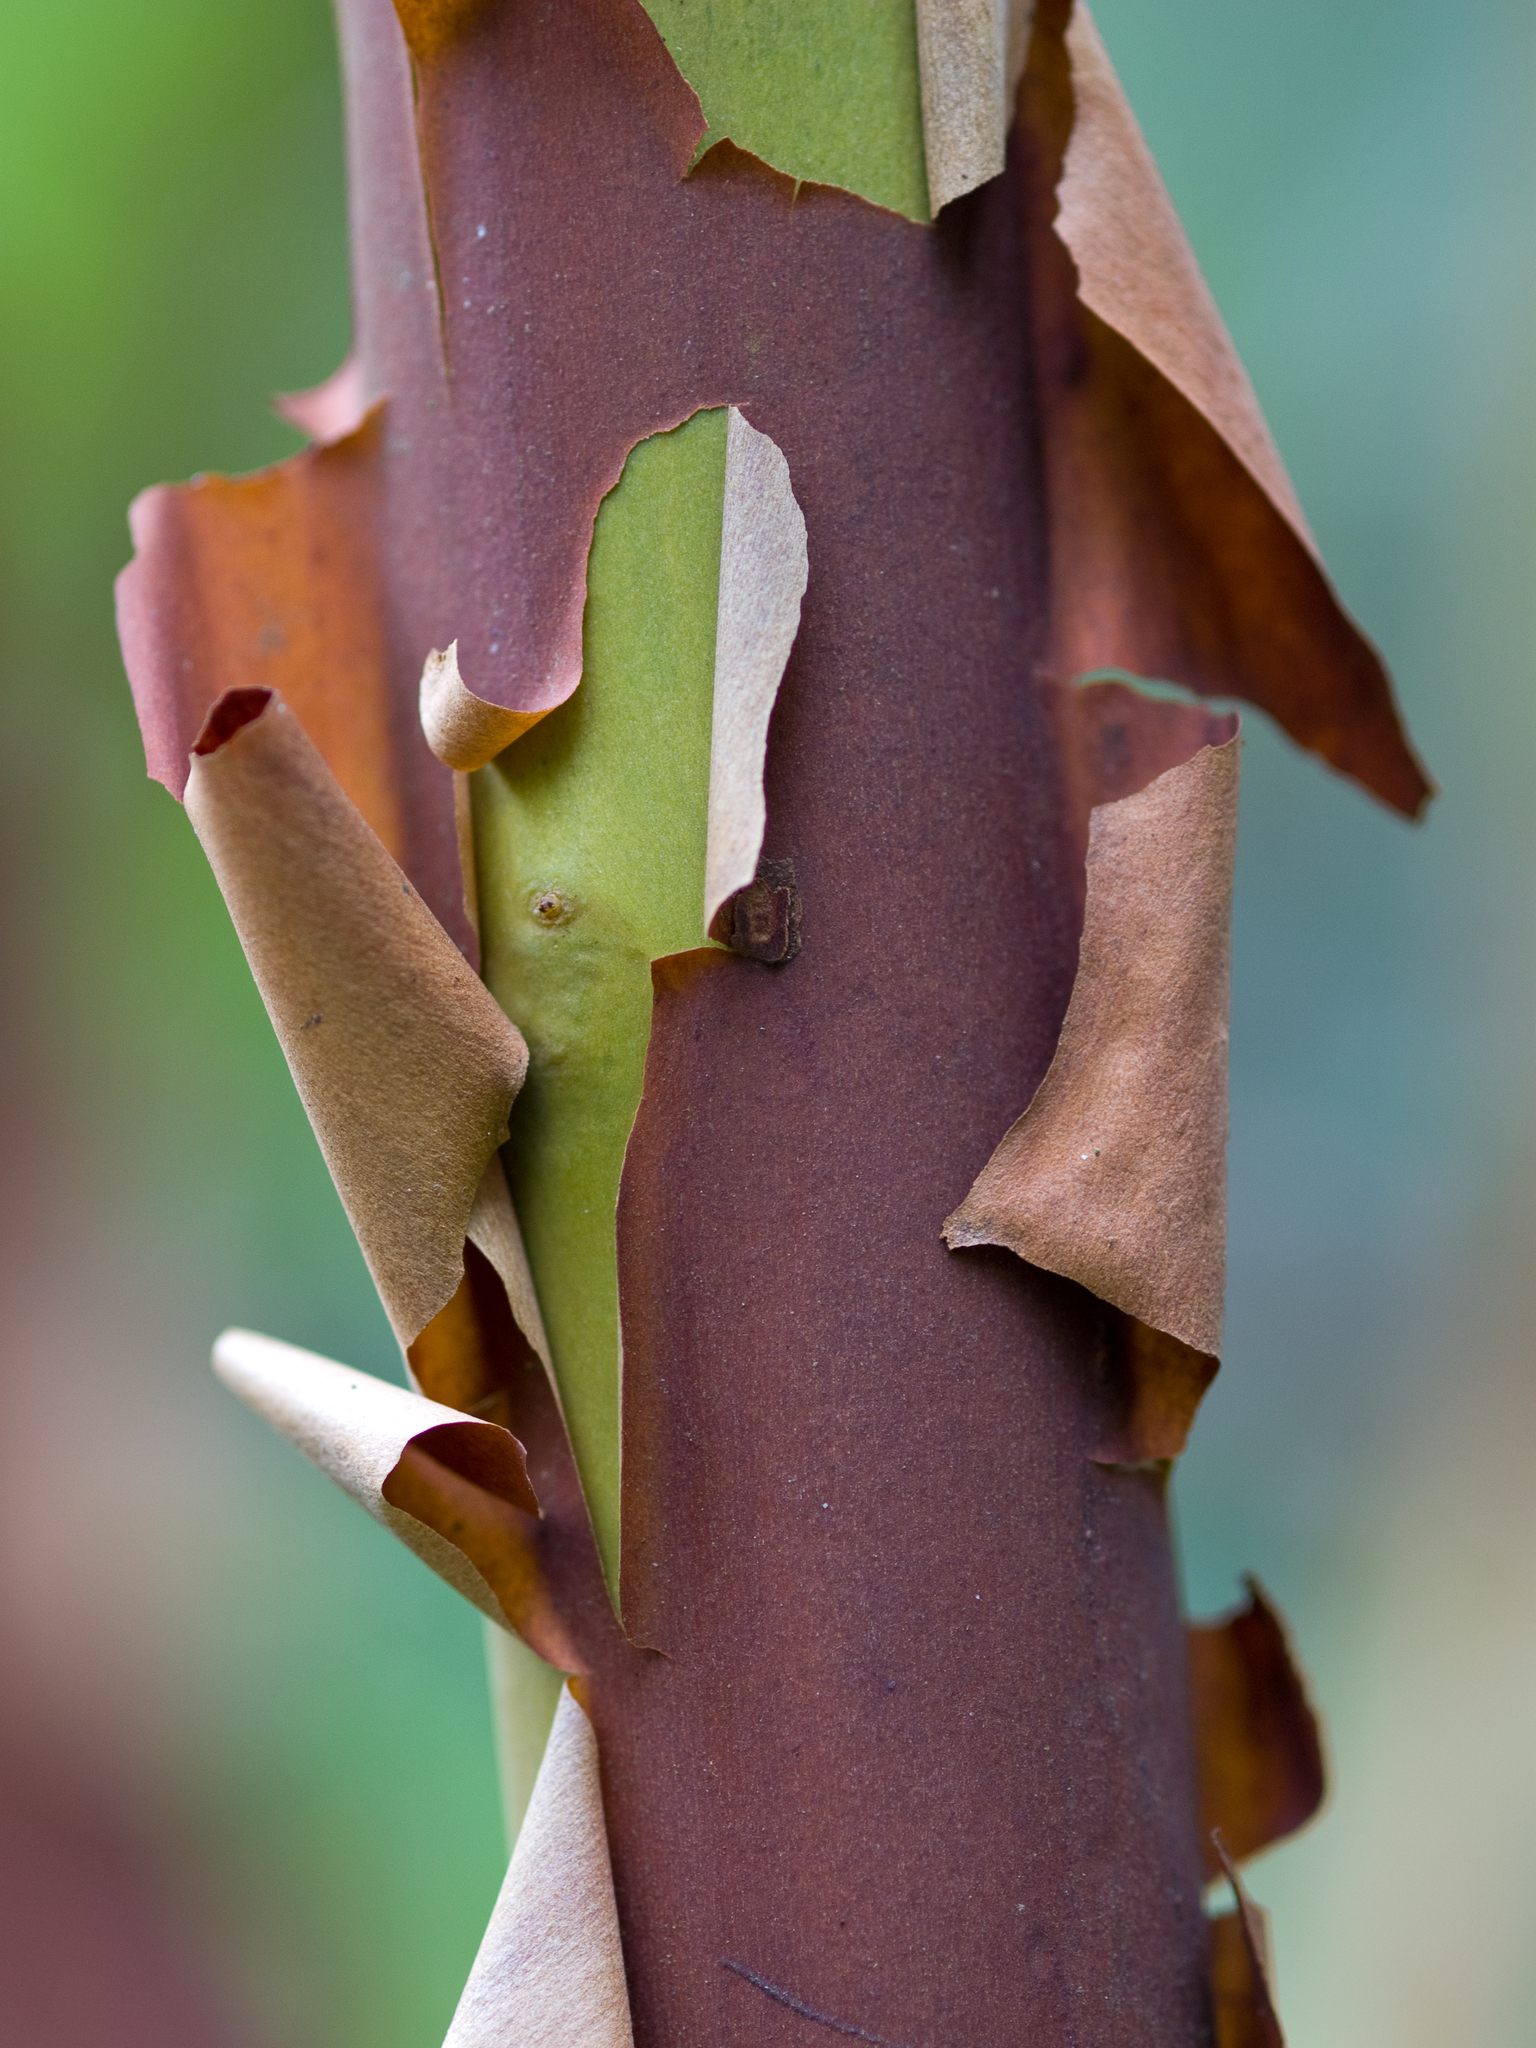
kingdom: Plantae
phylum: Tracheophyta
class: Magnoliopsida
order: Ericales
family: Ericaceae
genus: Arbutus
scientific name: Arbutus menziesii
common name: Pacific madrone
